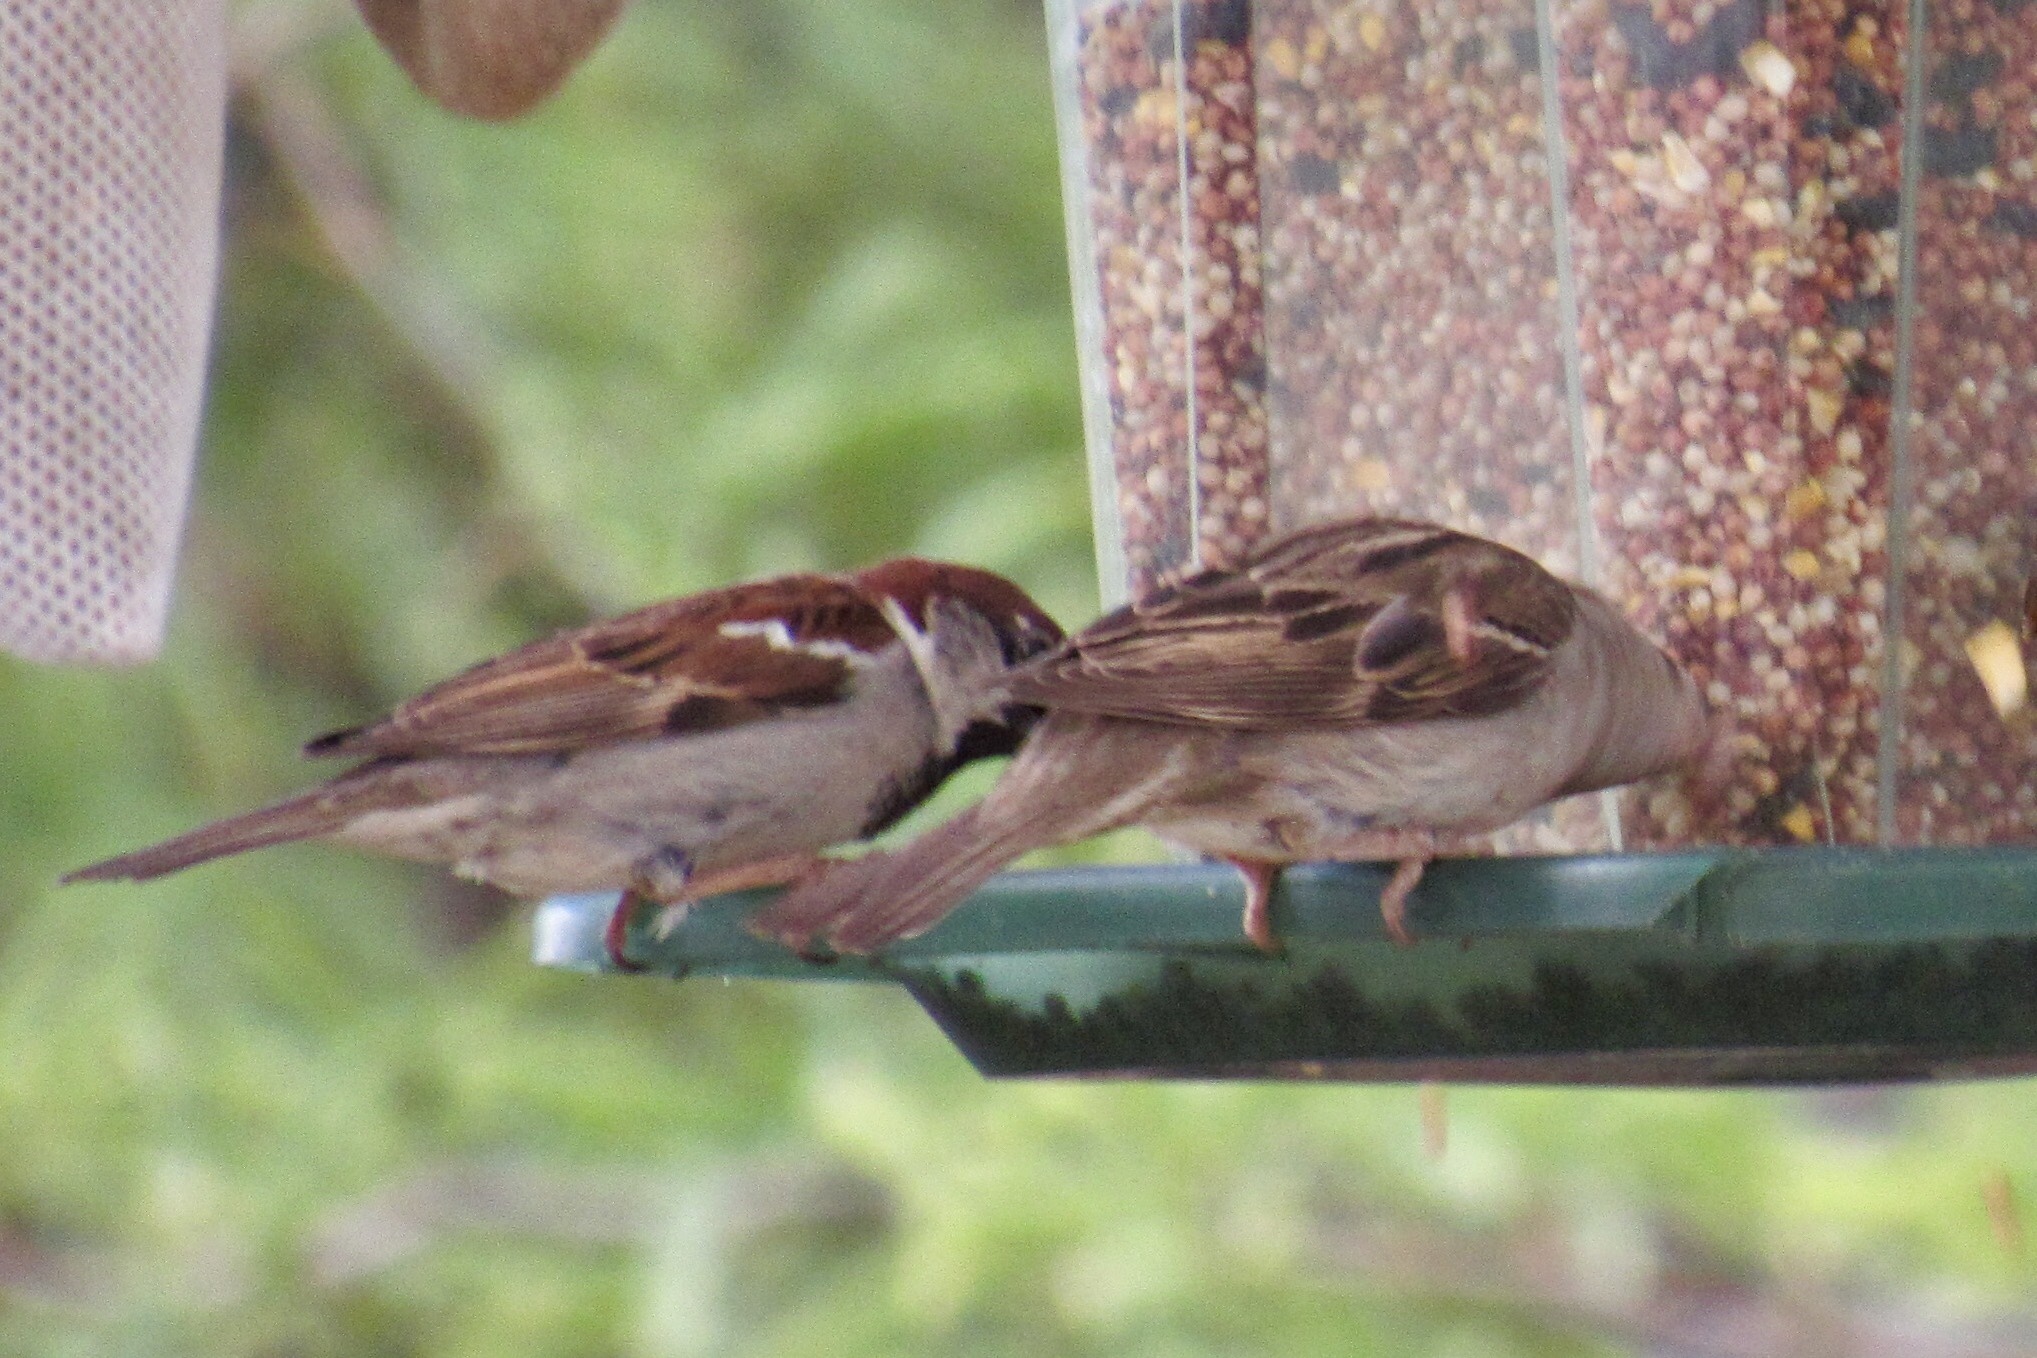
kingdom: Animalia
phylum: Chordata
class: Aves
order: Passeriformes
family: Passeridae
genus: Passer
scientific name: Passer domesticus
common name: House sparrow
